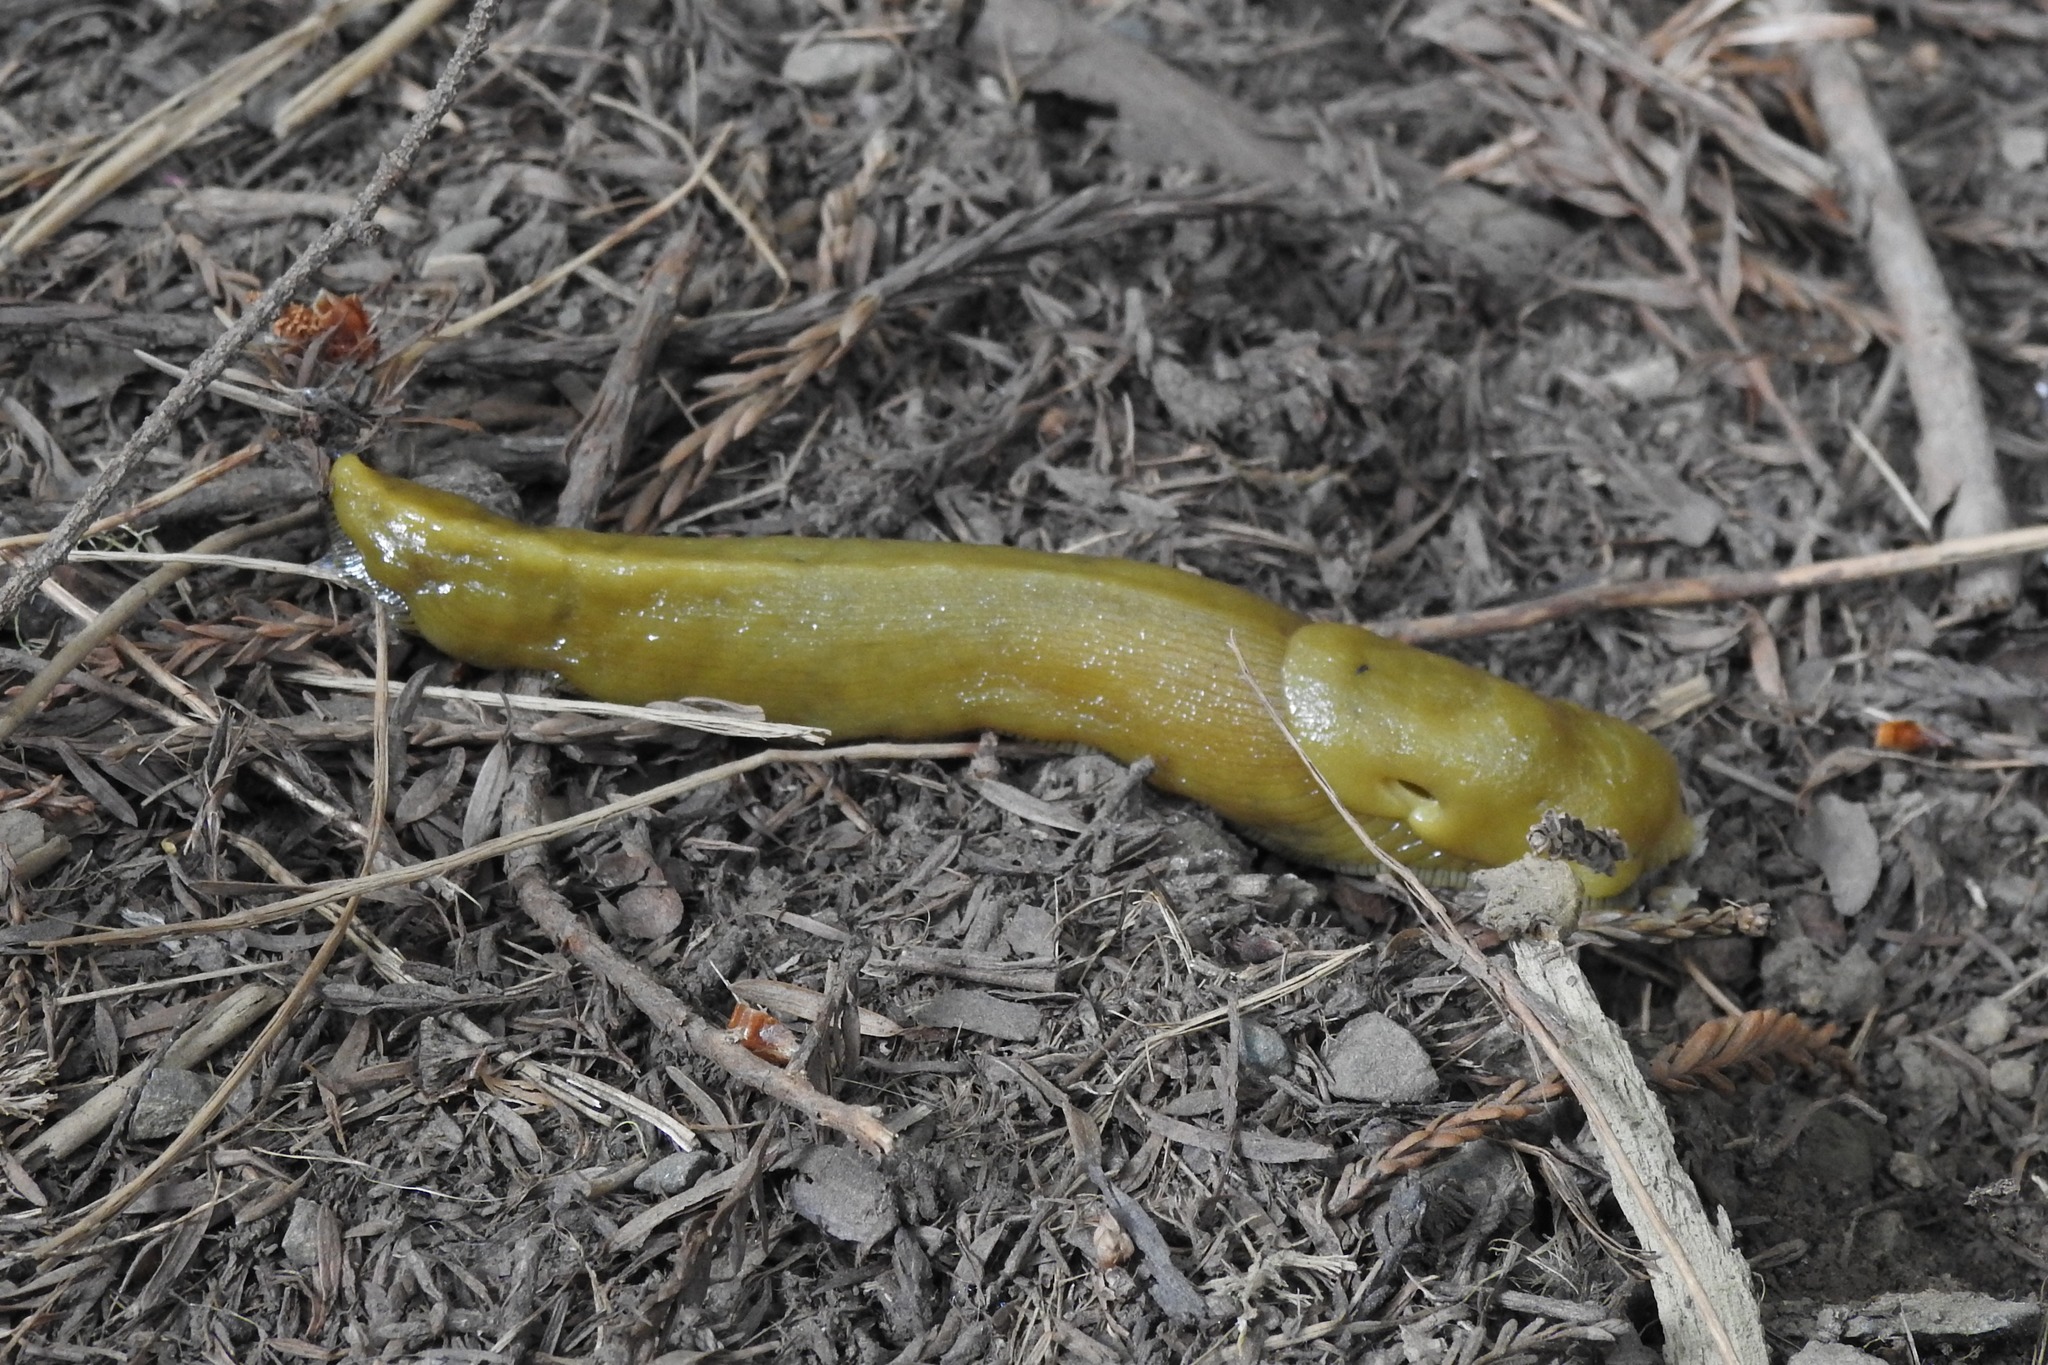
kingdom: Animalia
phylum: Mollusca
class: Gastropoda
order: Stylommatophora
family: Ariolimacidae
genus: Ariolimax
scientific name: Ariolimax buttoni
